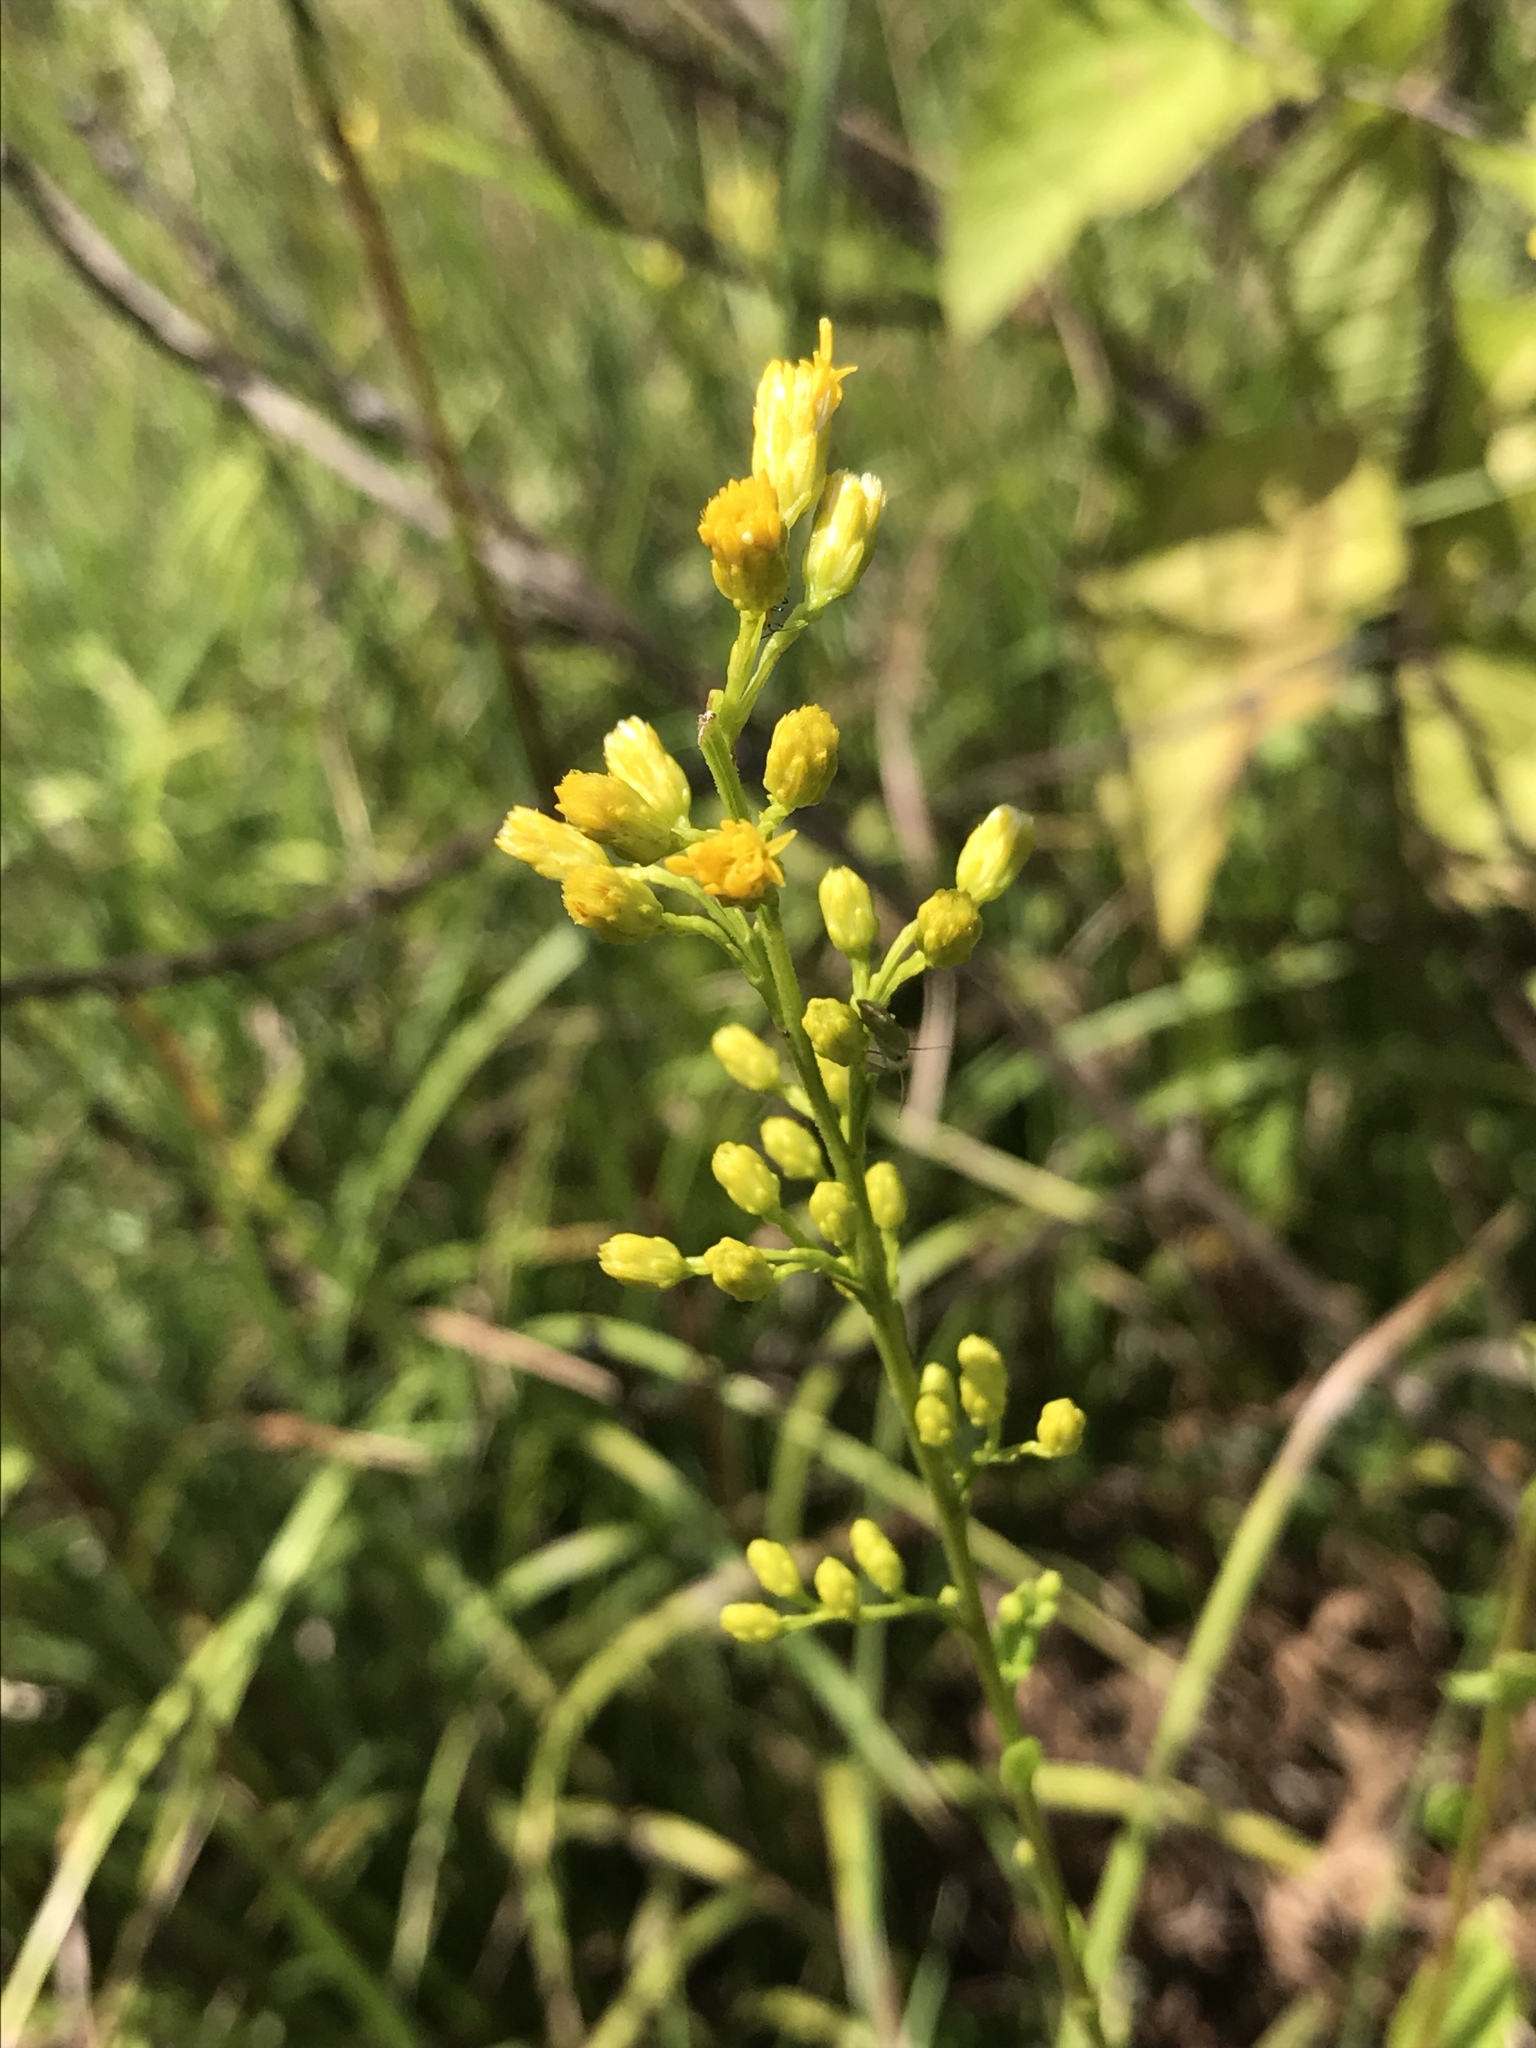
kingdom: Plantae
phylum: Tracheophyta
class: Magnoliopsida
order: Asterales
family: Asteraceae
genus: Solidago
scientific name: Solidago ludoviciana
